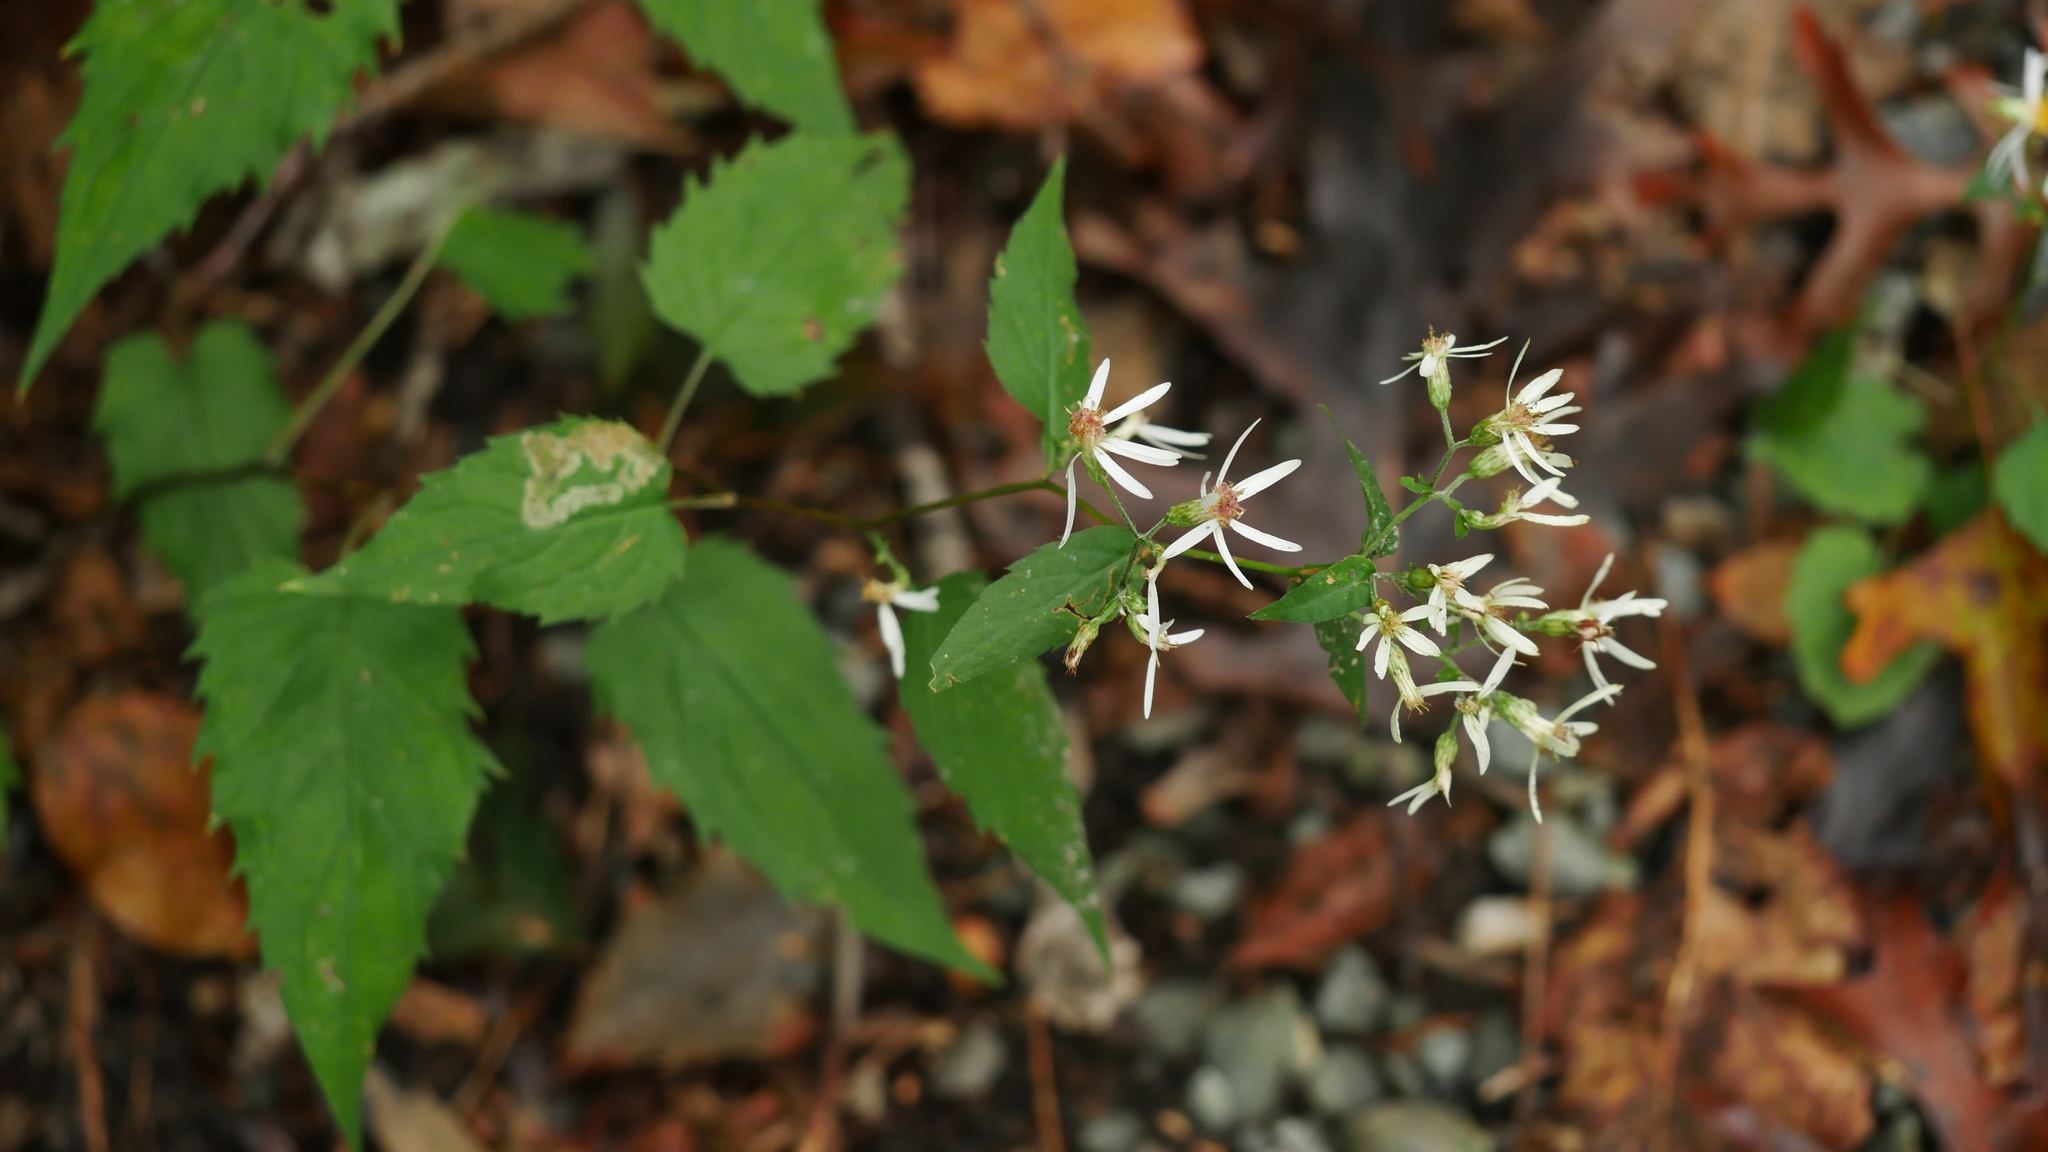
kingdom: Plantae
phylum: Tracheophyta
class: Magnoliopsida
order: Asterales
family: Asteraceae
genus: Eurybia
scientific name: Eurybia divaricata
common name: White wood aster
